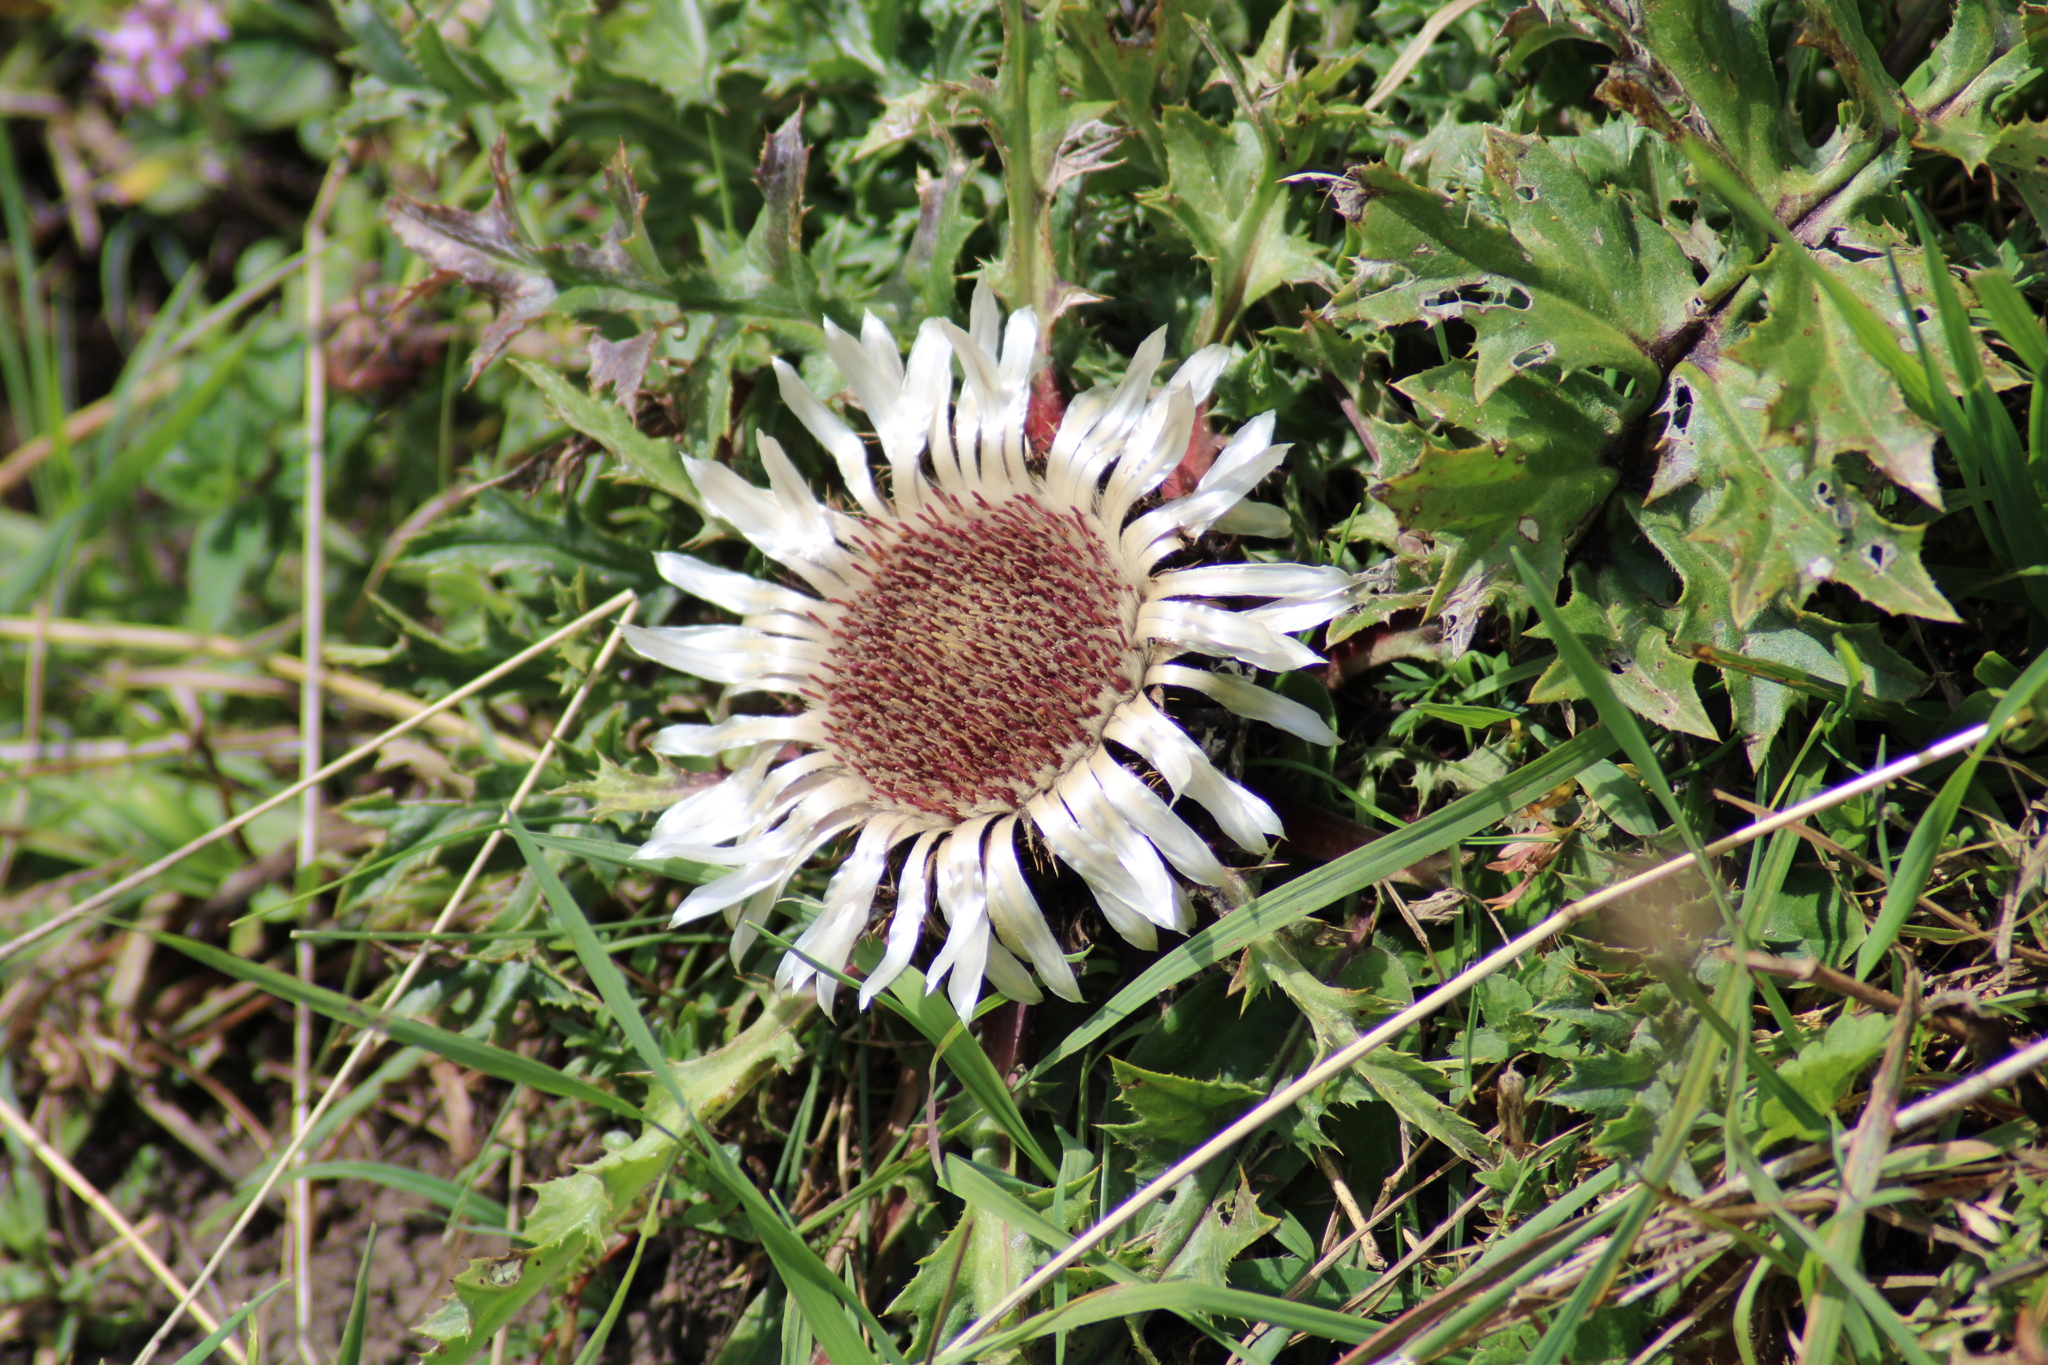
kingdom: Plantae
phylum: Tracheophyta
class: Magnoliopsida
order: Asterales
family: Asteraceae
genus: Carlina
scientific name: Carlina acaulis
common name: Stemless carline thistle
